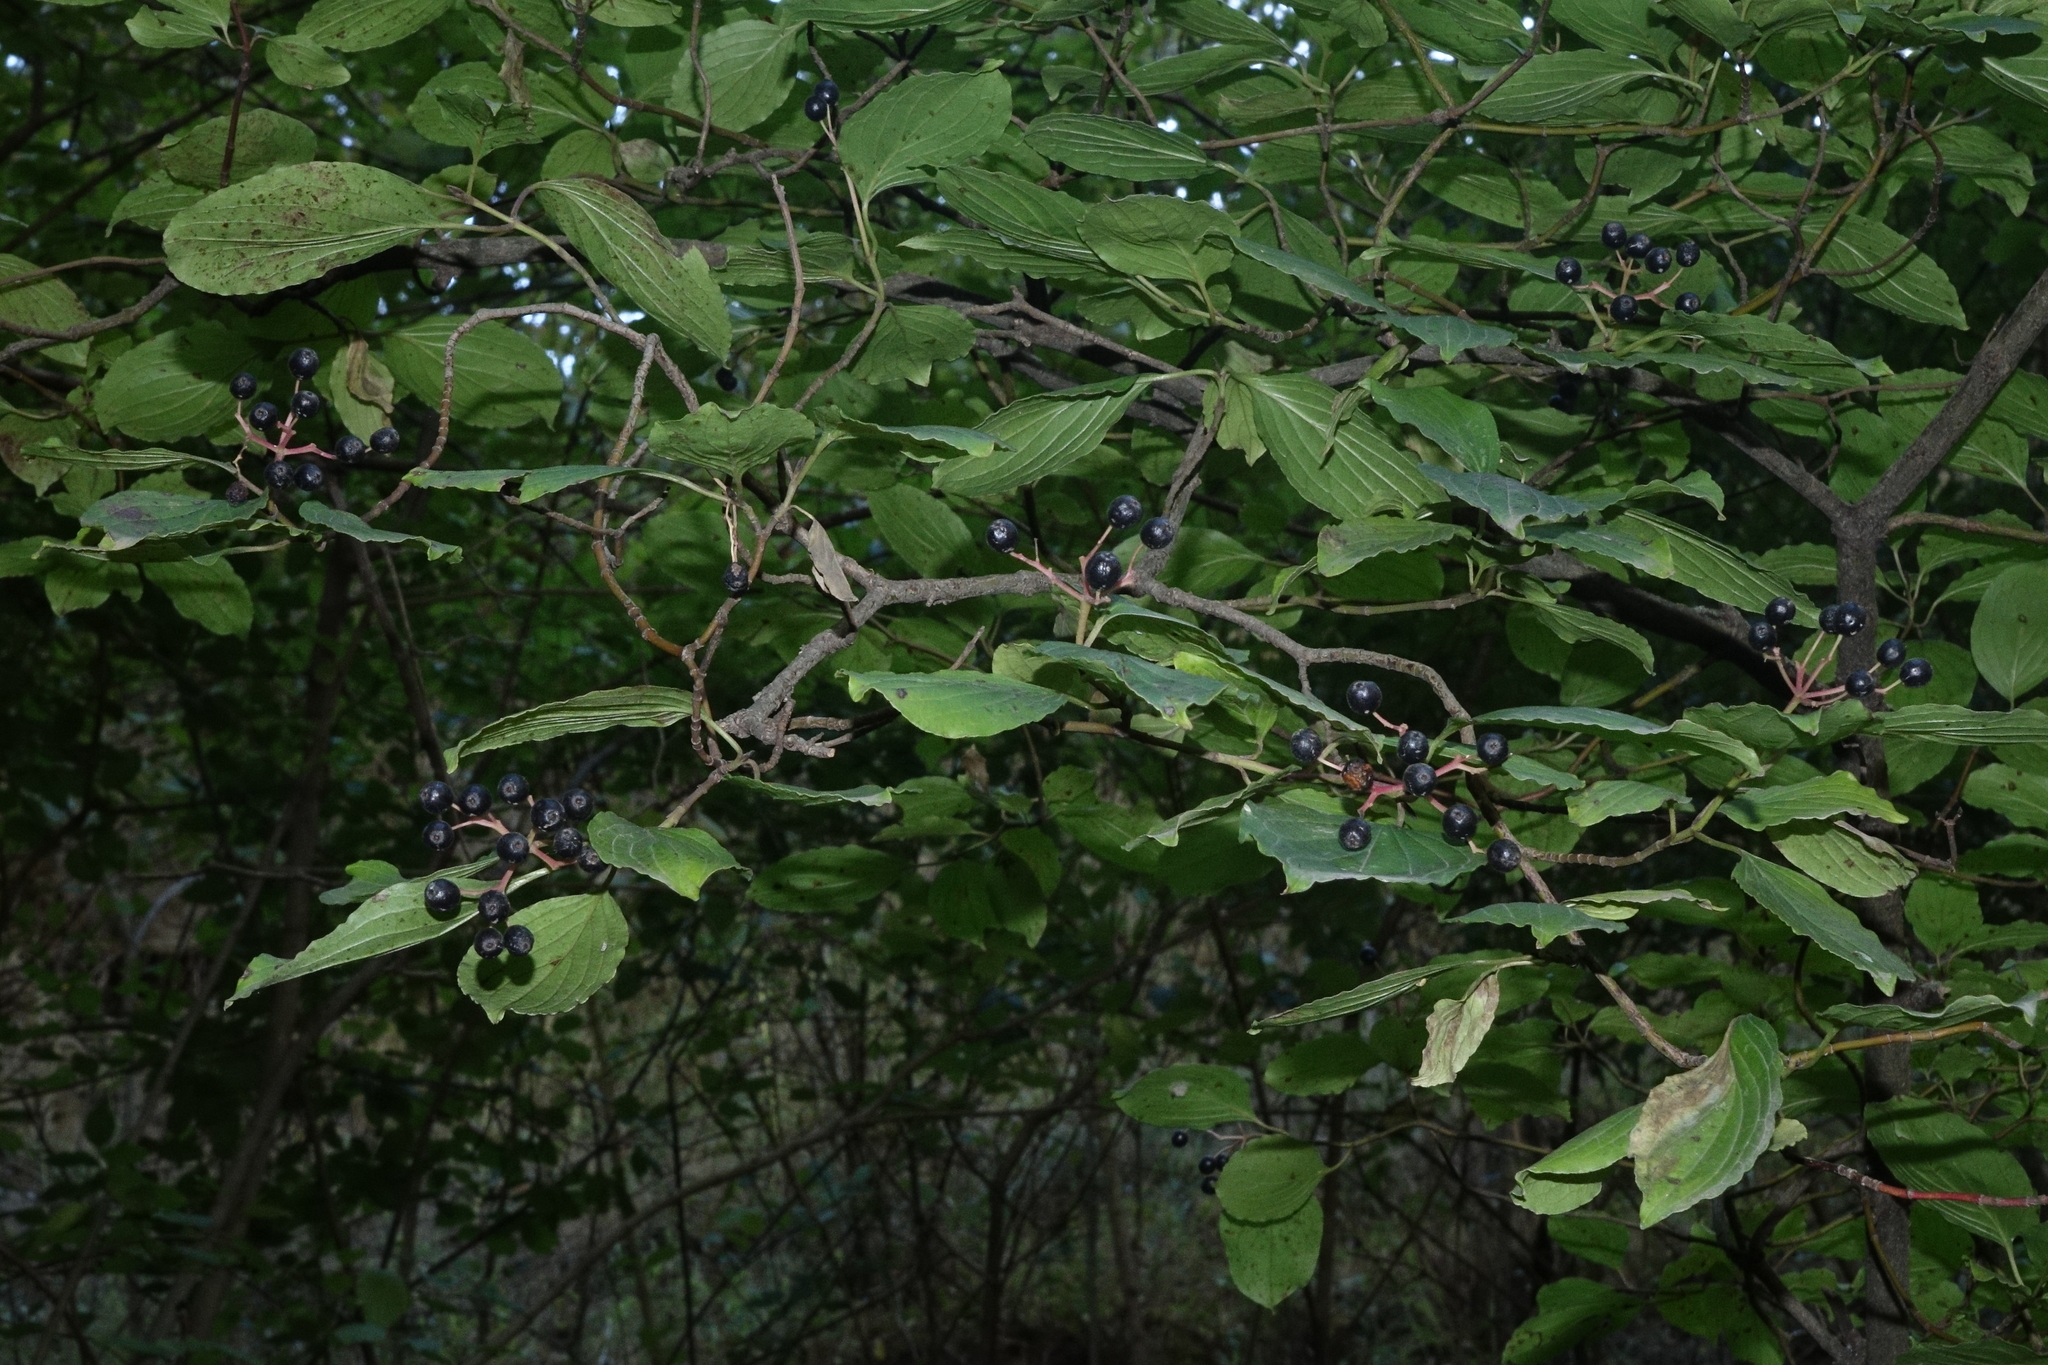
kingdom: Plantae
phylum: Tracheophyta
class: Magnoliopsida
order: Cornales
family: Cornaceae
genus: Cornus
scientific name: Cornus sanguinea
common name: Dogwood
